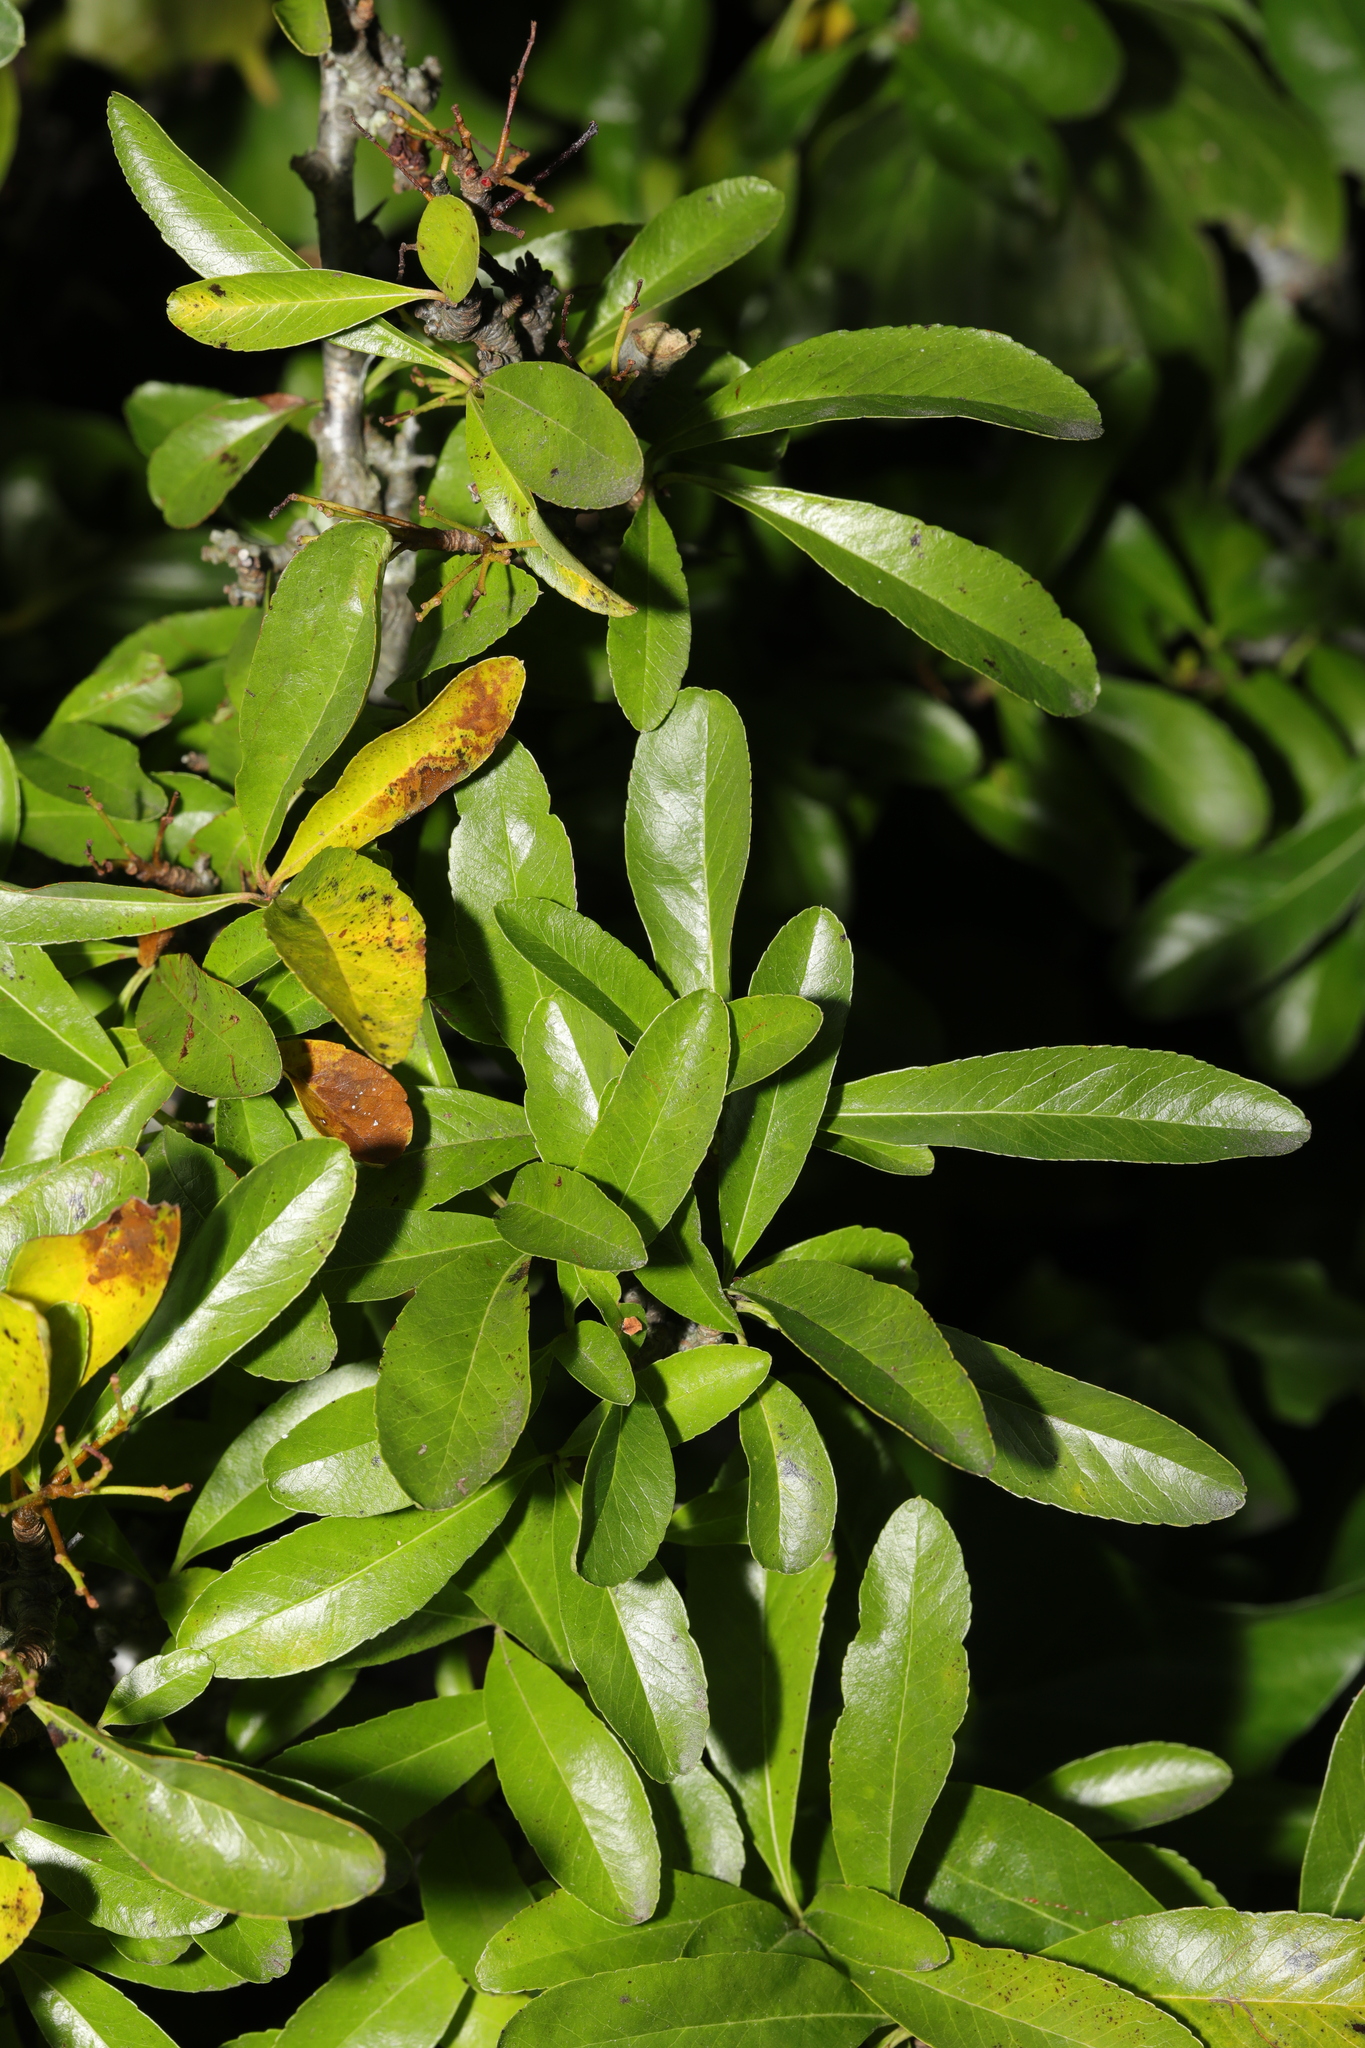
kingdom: Plantae
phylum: Tracheophyta
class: Magnoliopsida
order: Rosales
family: Rosaceae
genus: Pyracantha
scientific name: Pyracantha coccinea
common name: Firethorn
